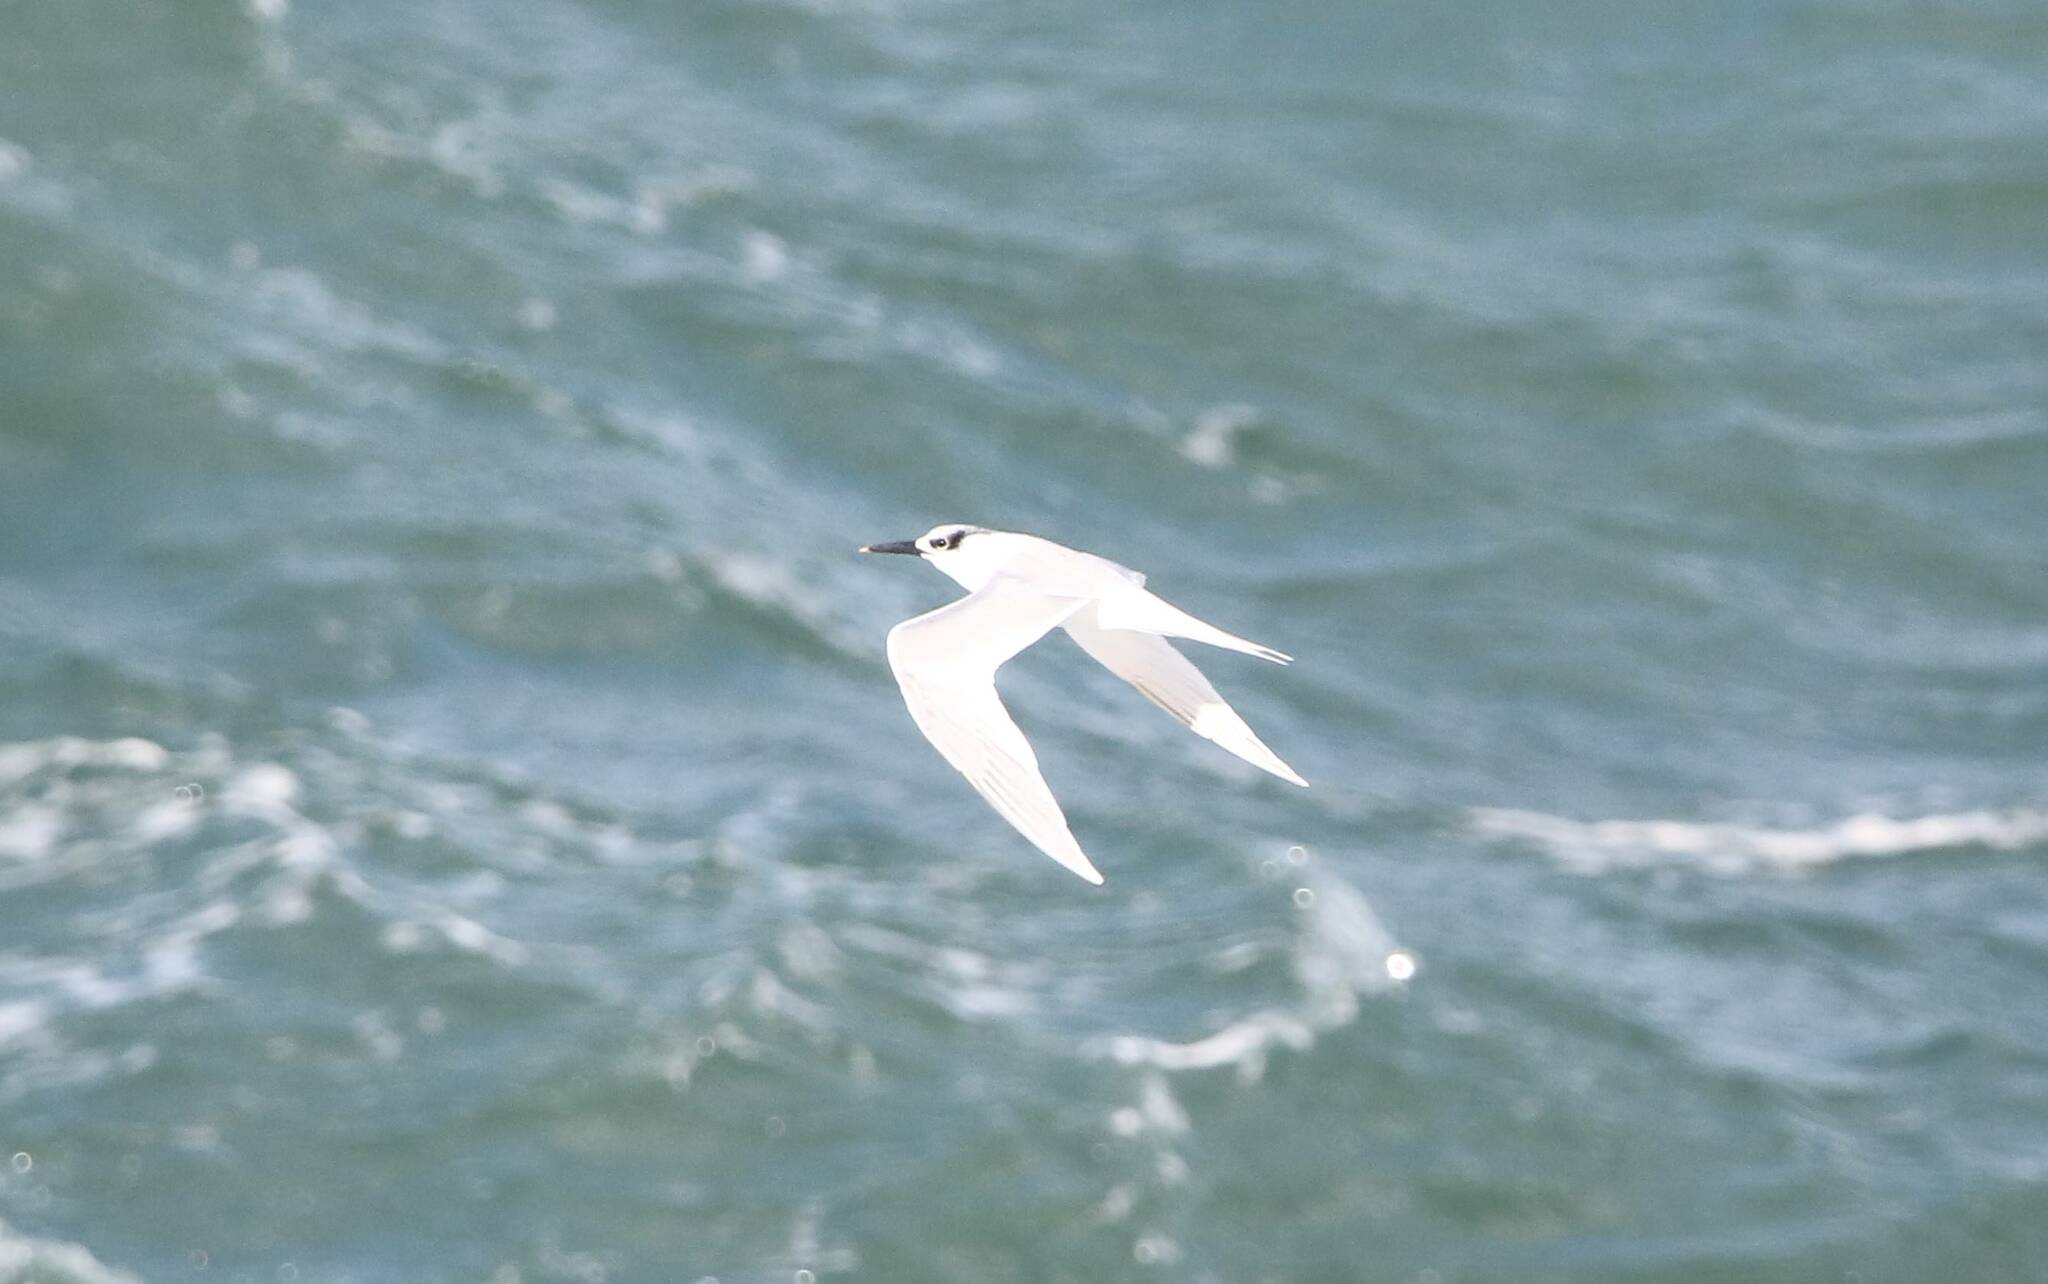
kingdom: Animalia
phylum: Chordata
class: Aves
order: Charadriiformes
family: Laridae
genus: Thalasseus
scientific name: Thalasseus sandvicensis
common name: Sandwich tern
